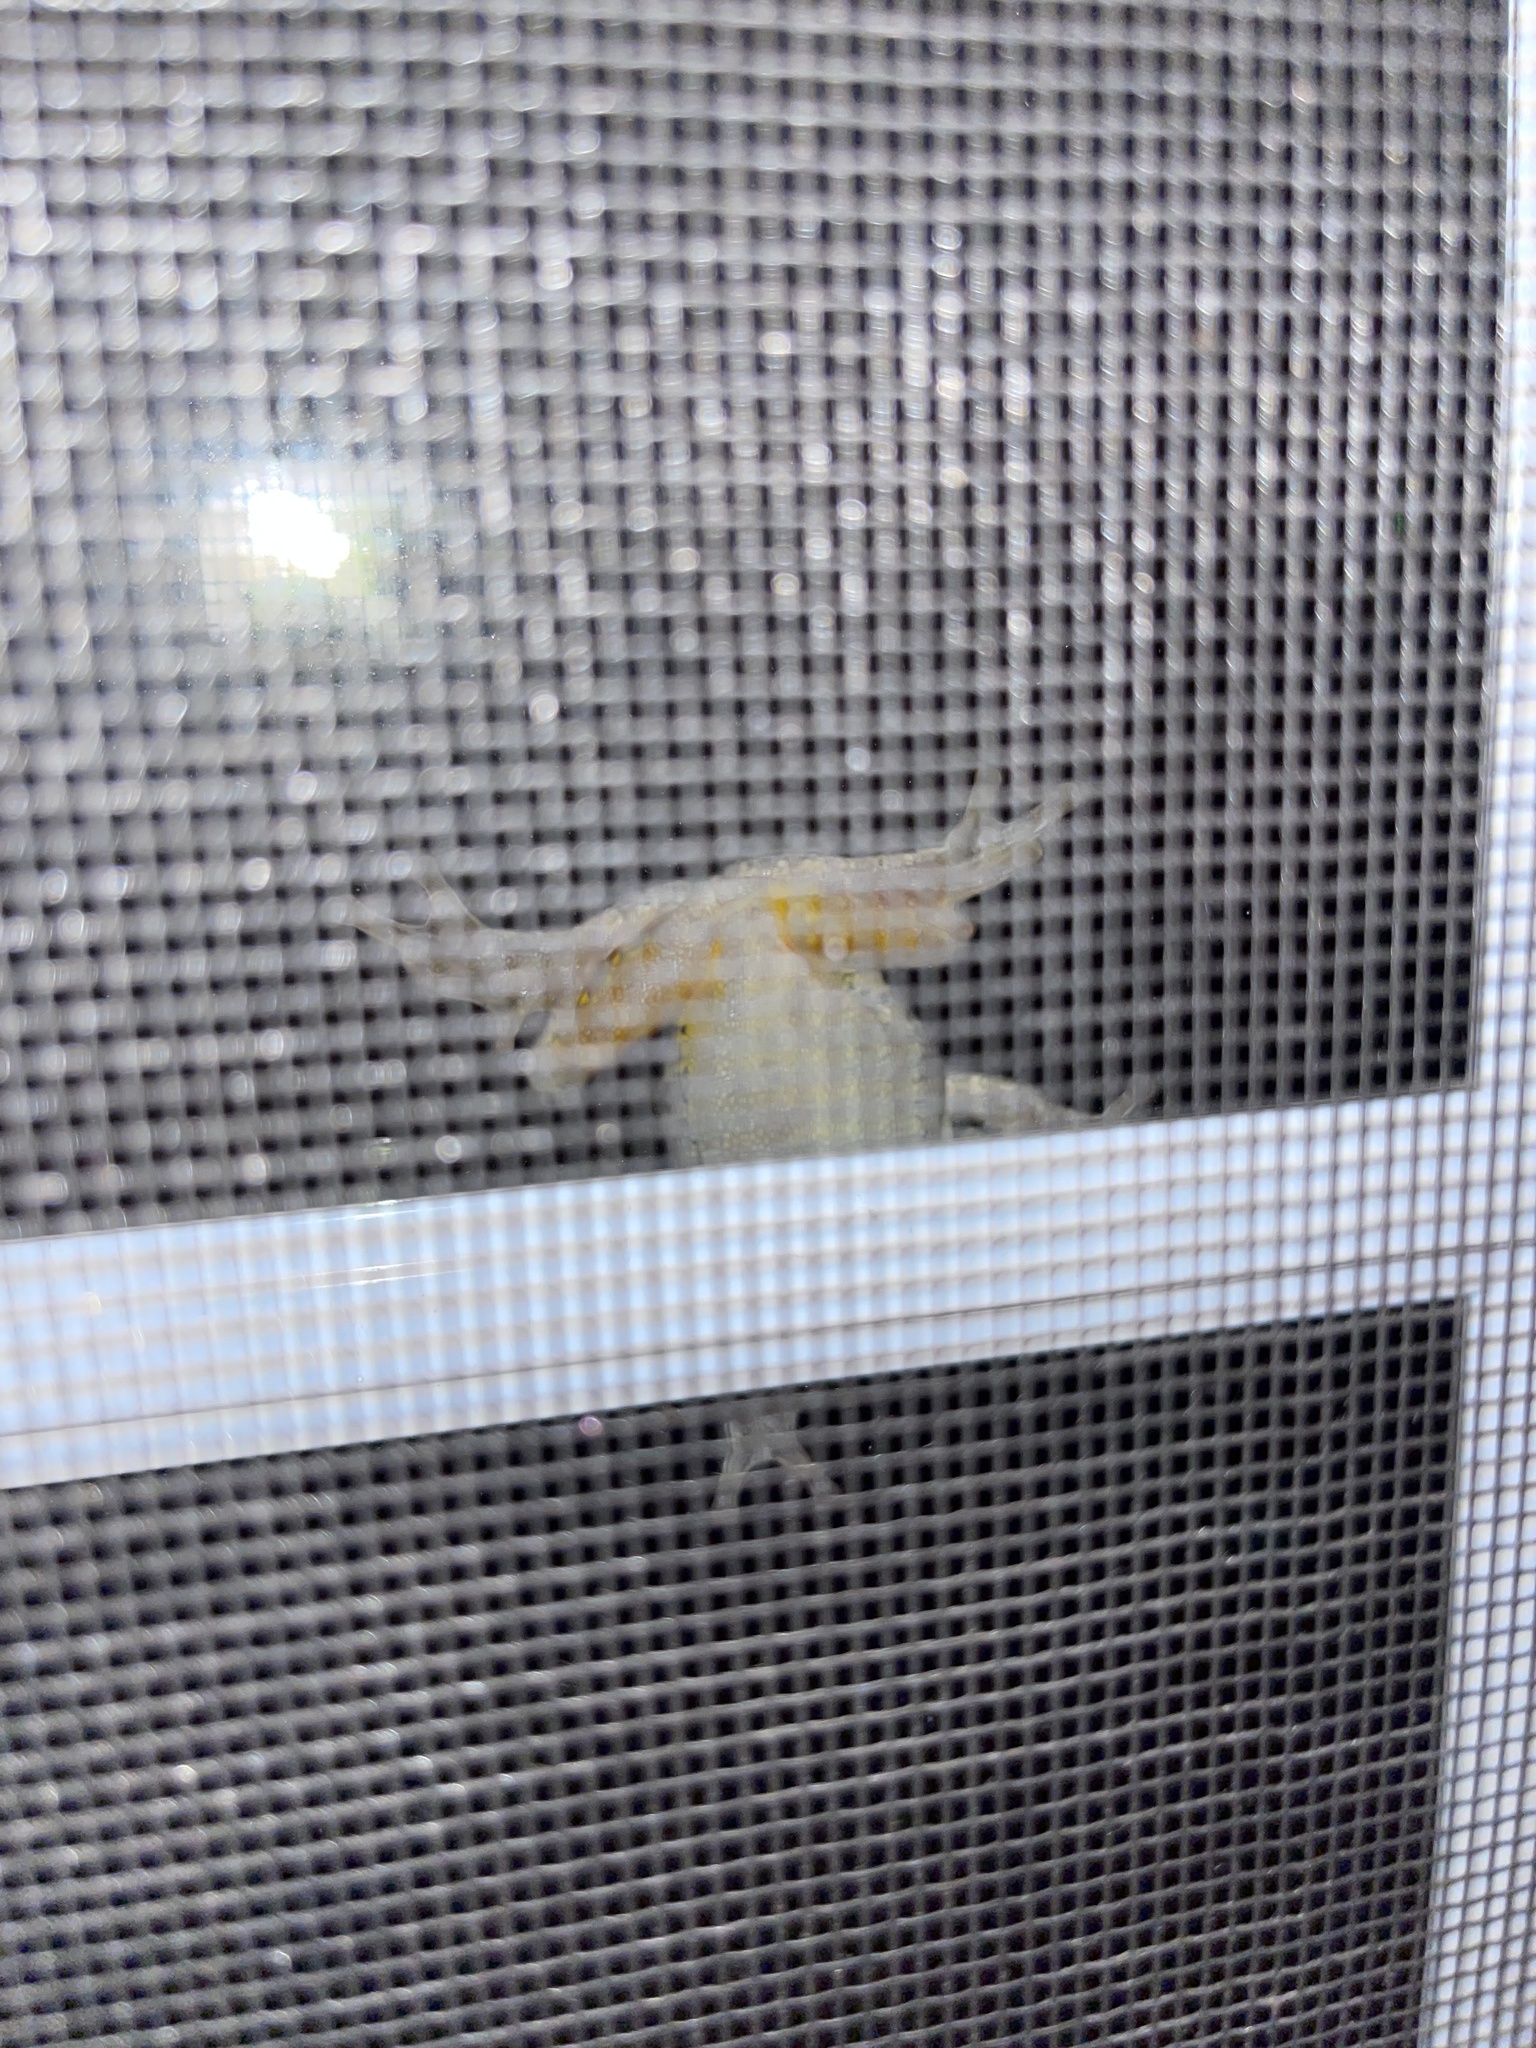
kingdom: Animalia
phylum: Chordata
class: Amphibia
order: Anura
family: Hylidae
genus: Dryophytes
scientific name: Dryophytes versicolor
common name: Gray treefrog
